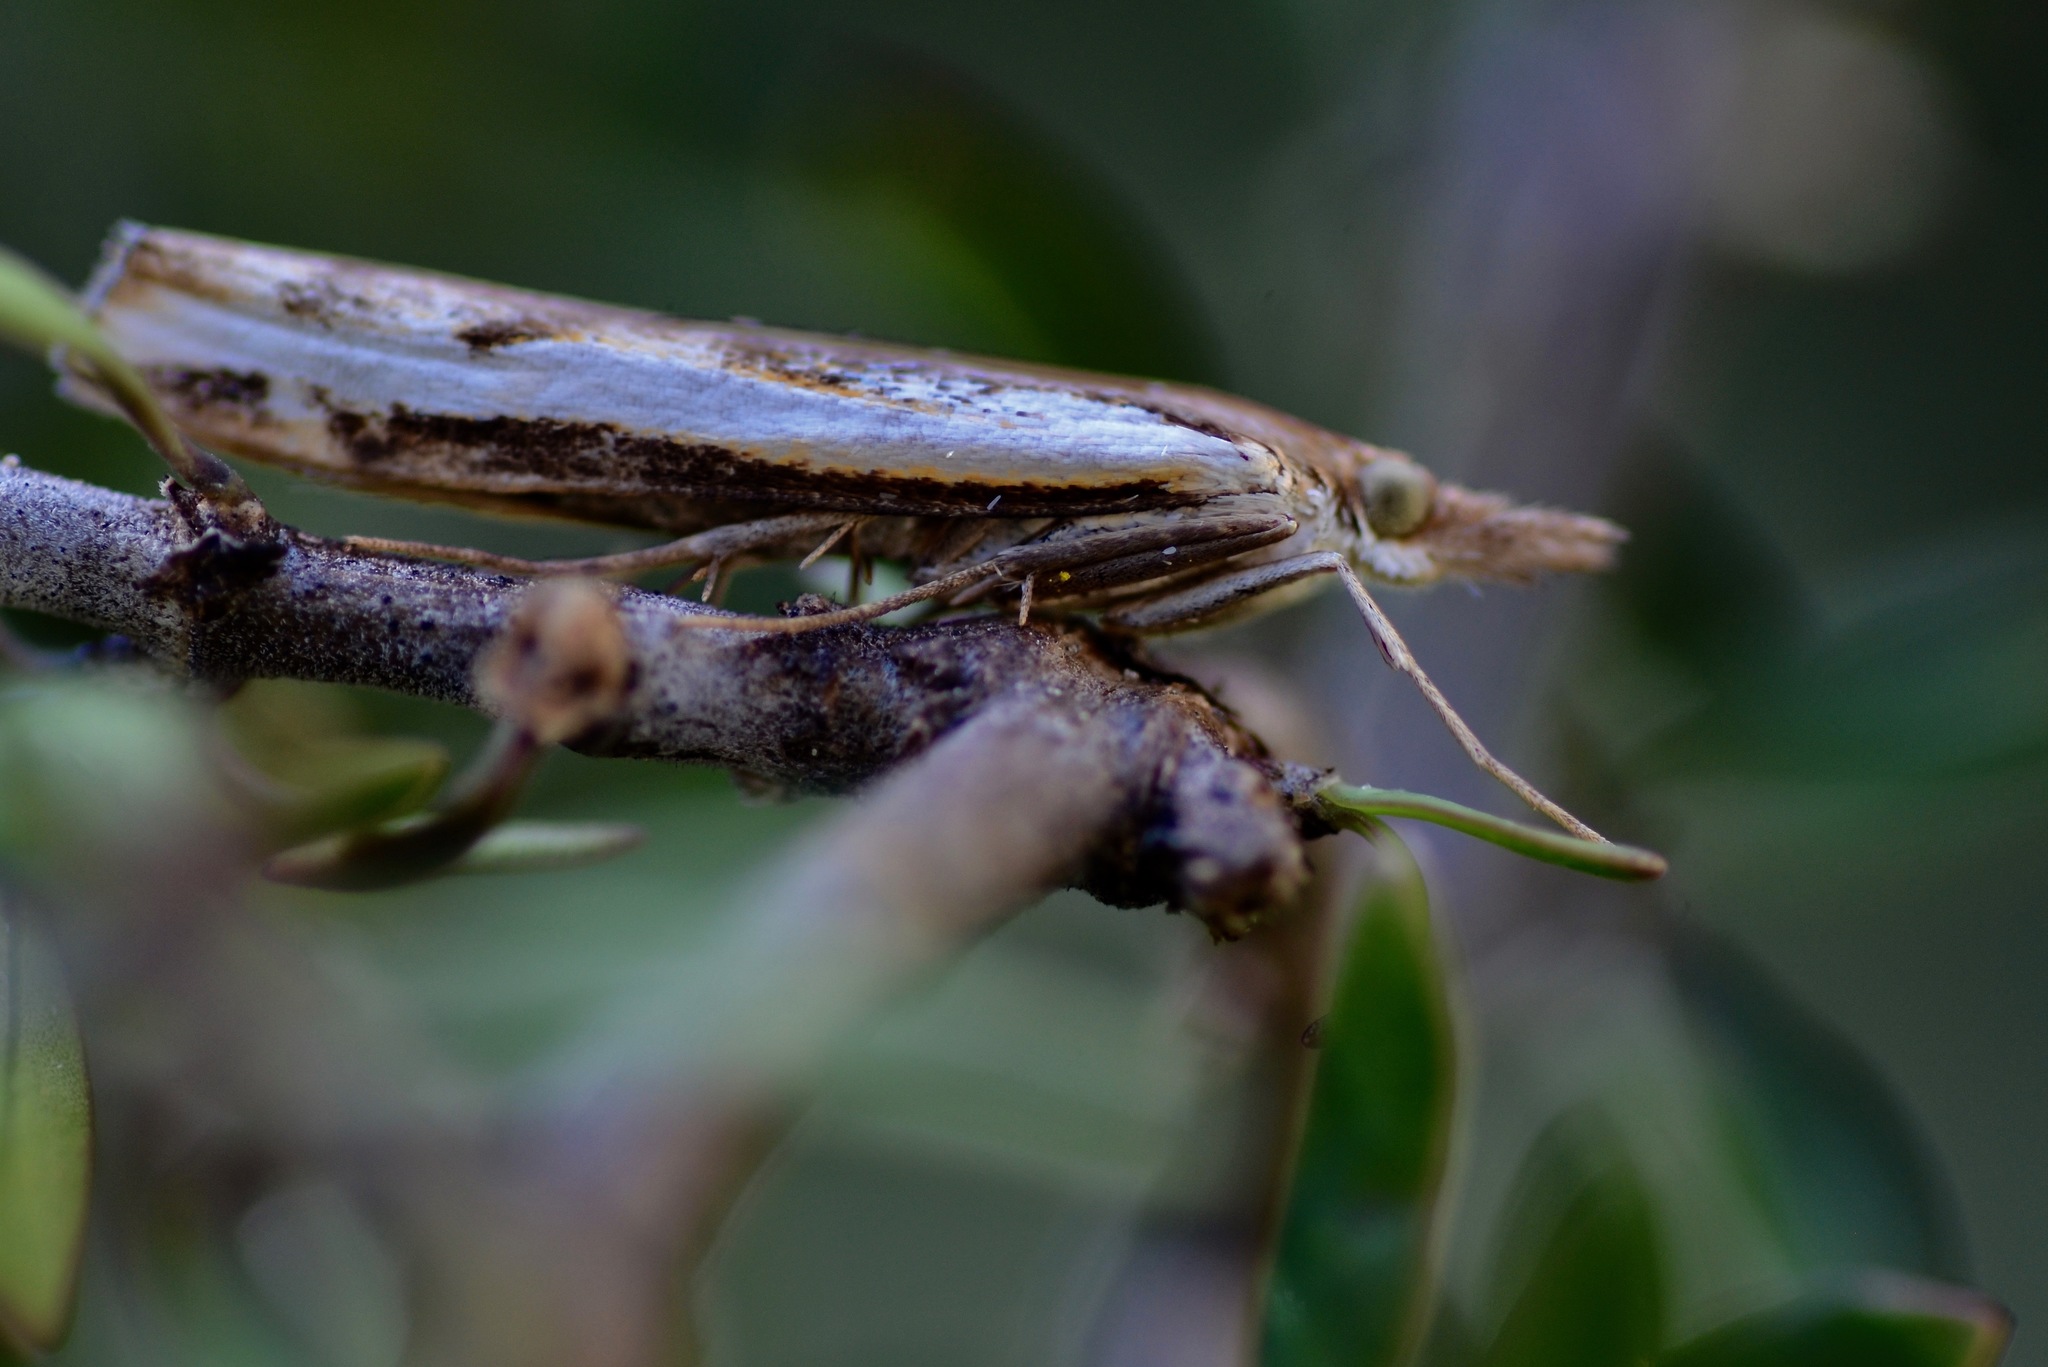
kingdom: Animalia
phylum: Arthropoda
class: Insecta
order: Lepidoptera
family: Crambidae
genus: Orocrambus
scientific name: Orocrambus flexuosellus
